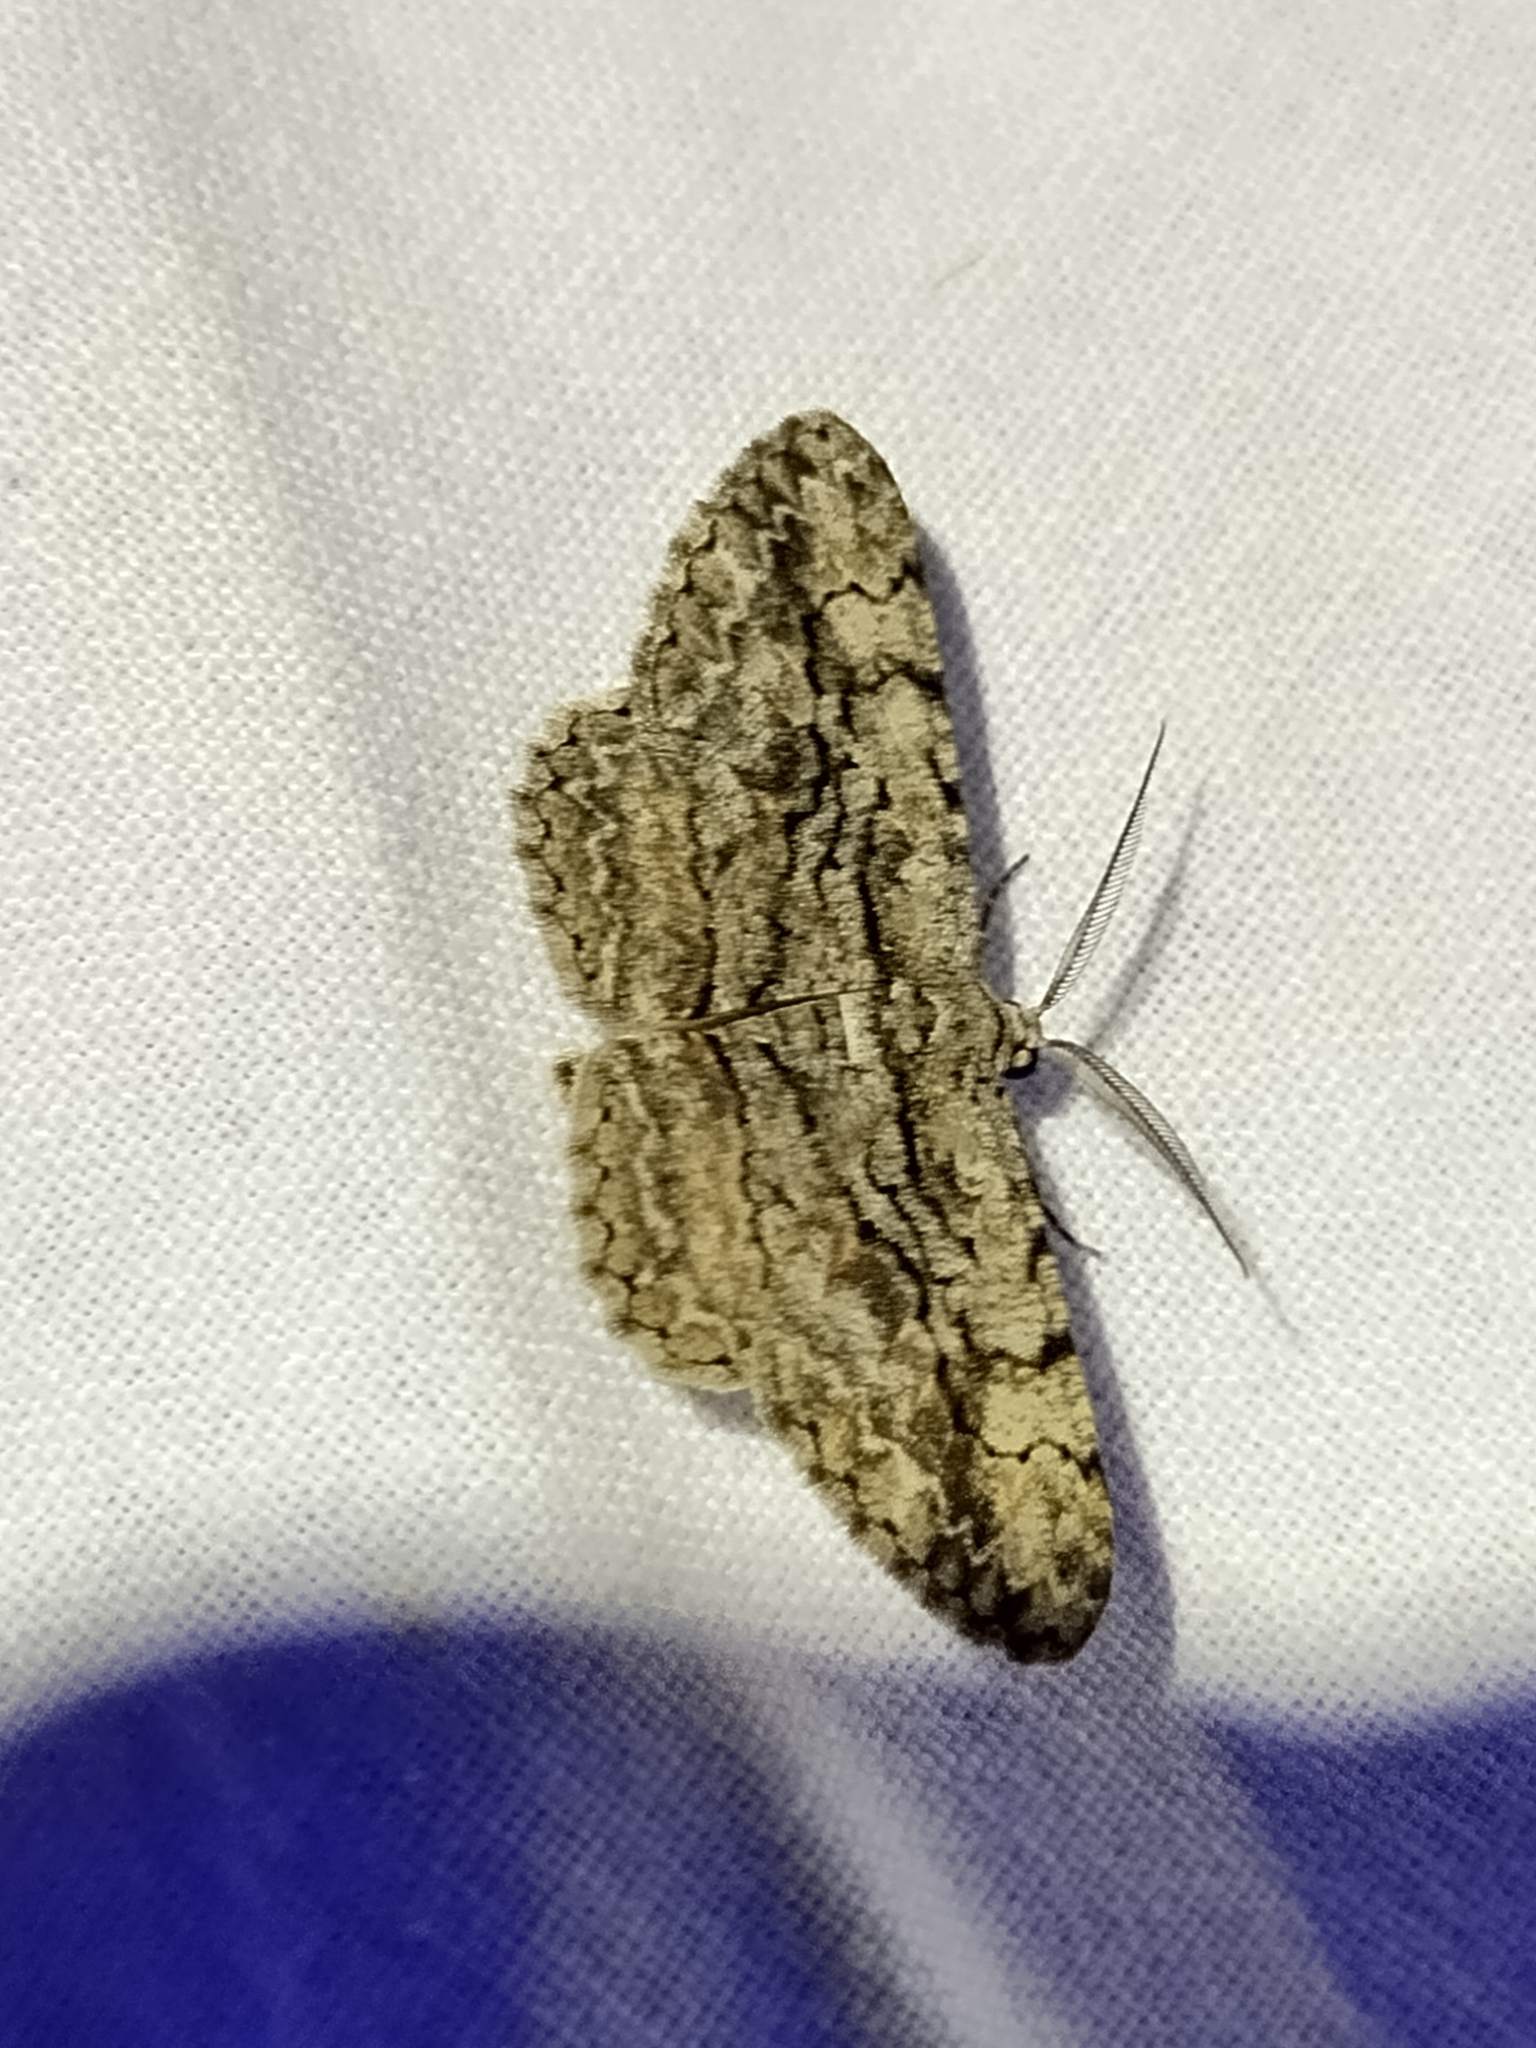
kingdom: Animalia
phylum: Arthropoda
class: Insecta
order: Lepidoptera
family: Geometridae
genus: Anavitrinella
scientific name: Anavitrinella pampinaria
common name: Common gray
